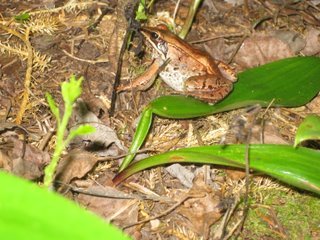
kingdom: Animalia
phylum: Chordata
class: Amphibia
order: Anura
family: Ranidae
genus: Lithobates
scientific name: Lithobates sylvaticus
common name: Wood frog
